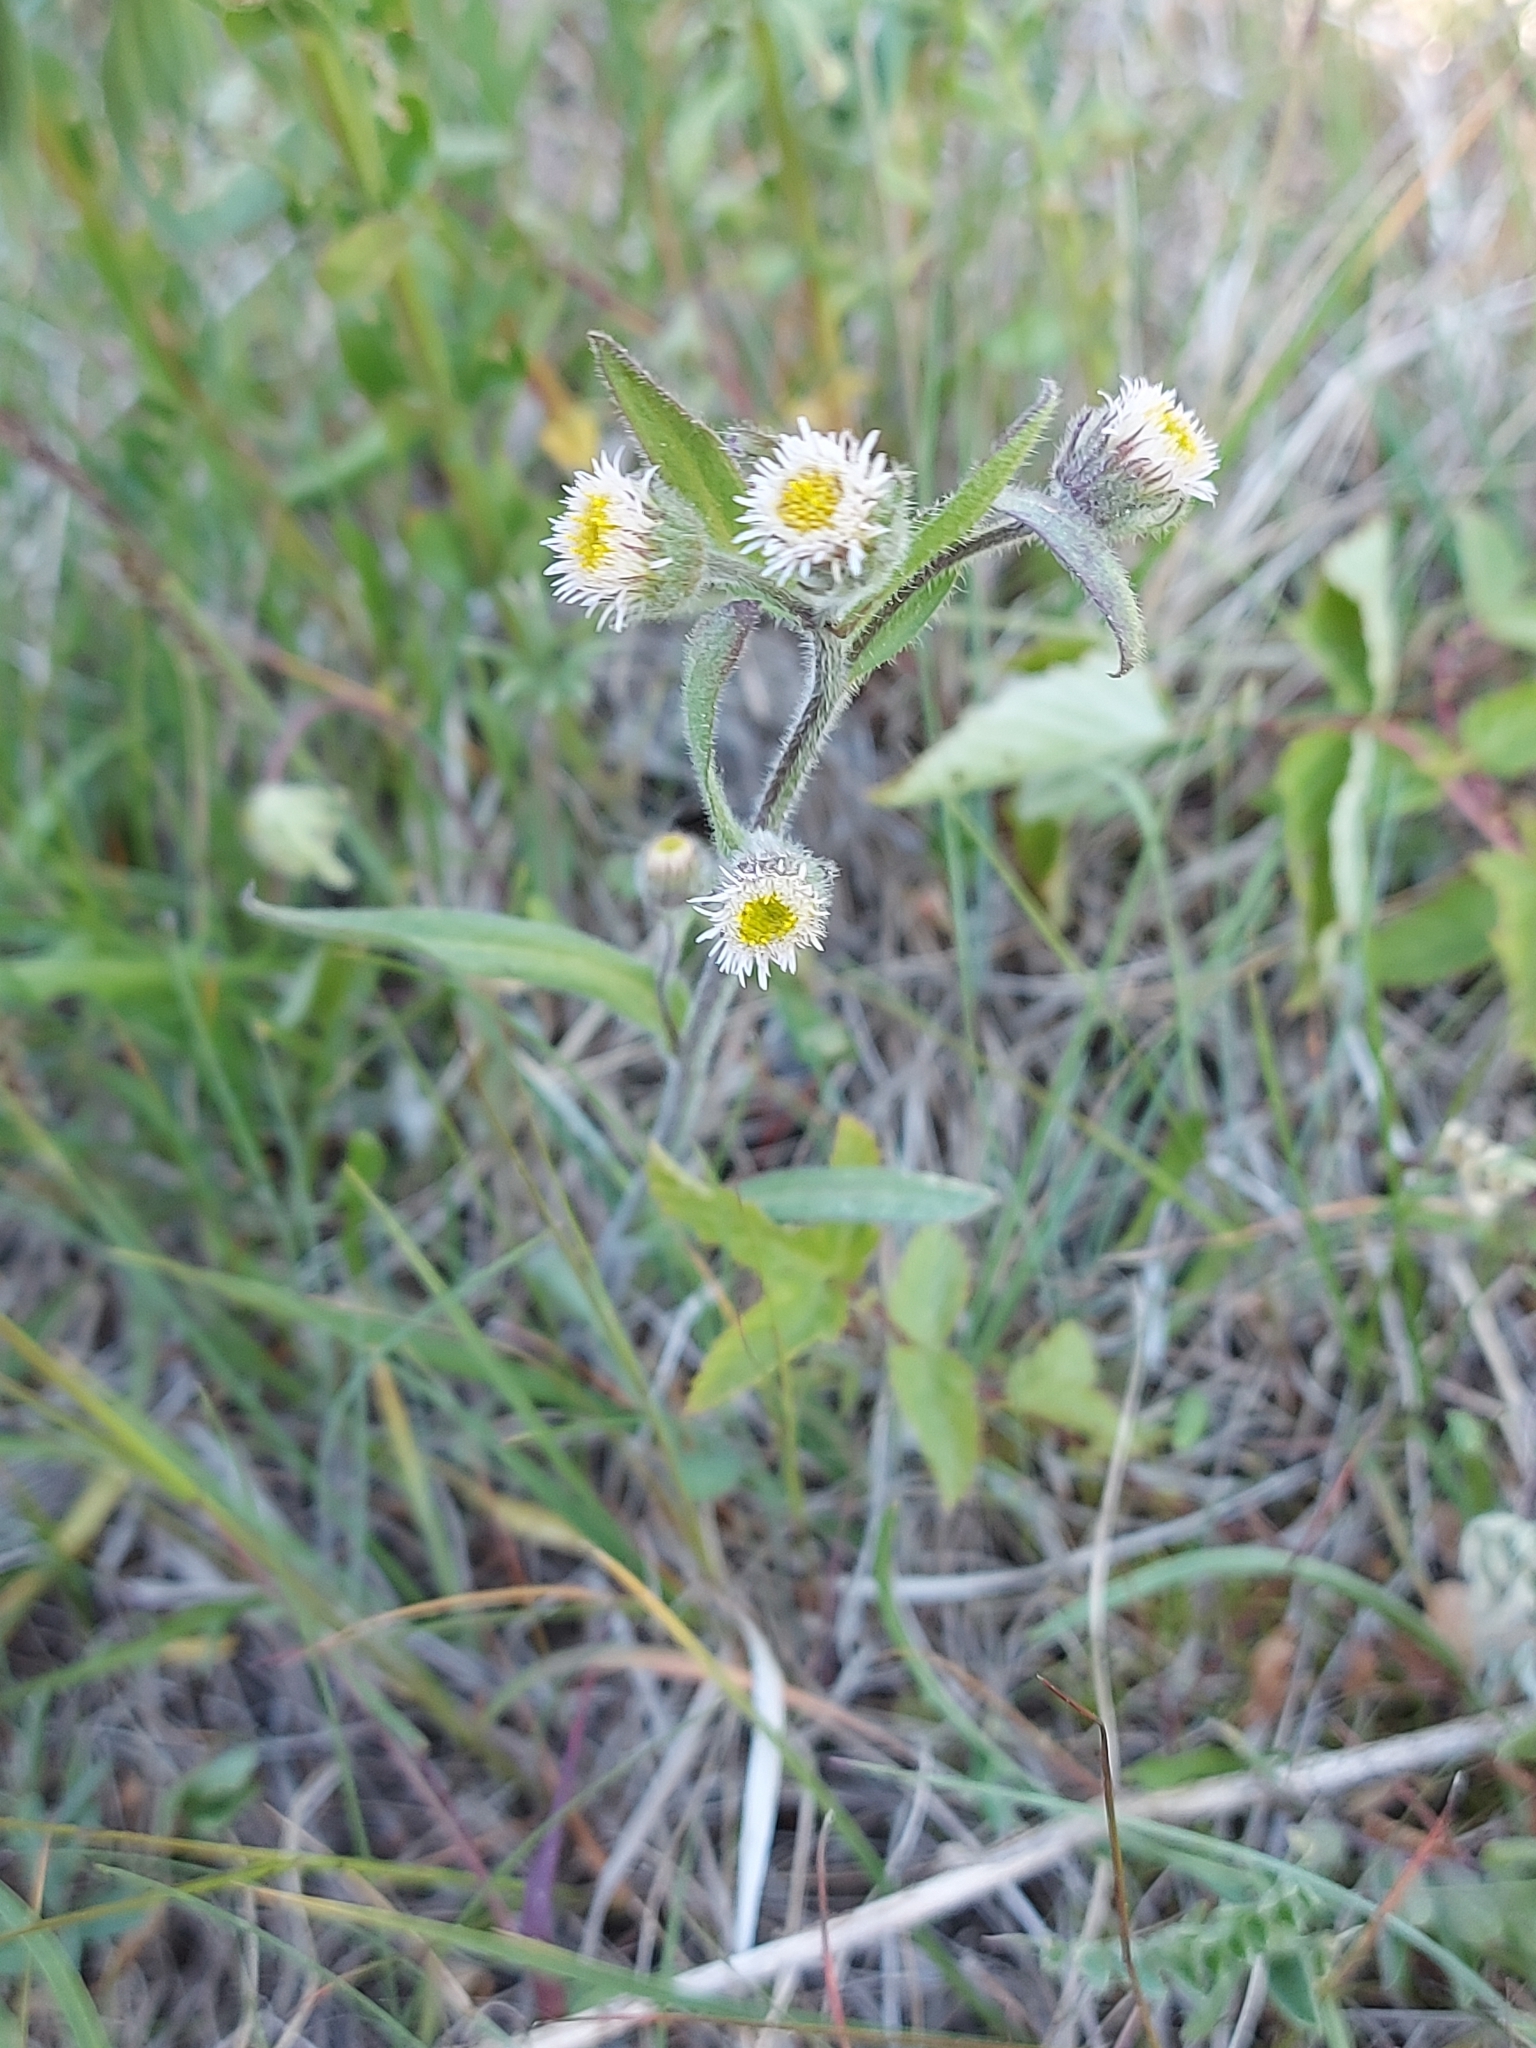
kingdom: Plantae
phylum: Tracheophyta
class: Magnoliopsida
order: Asterales
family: Asteraceae
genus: Erigeron
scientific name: Erigeron acris
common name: Blue fleabane
